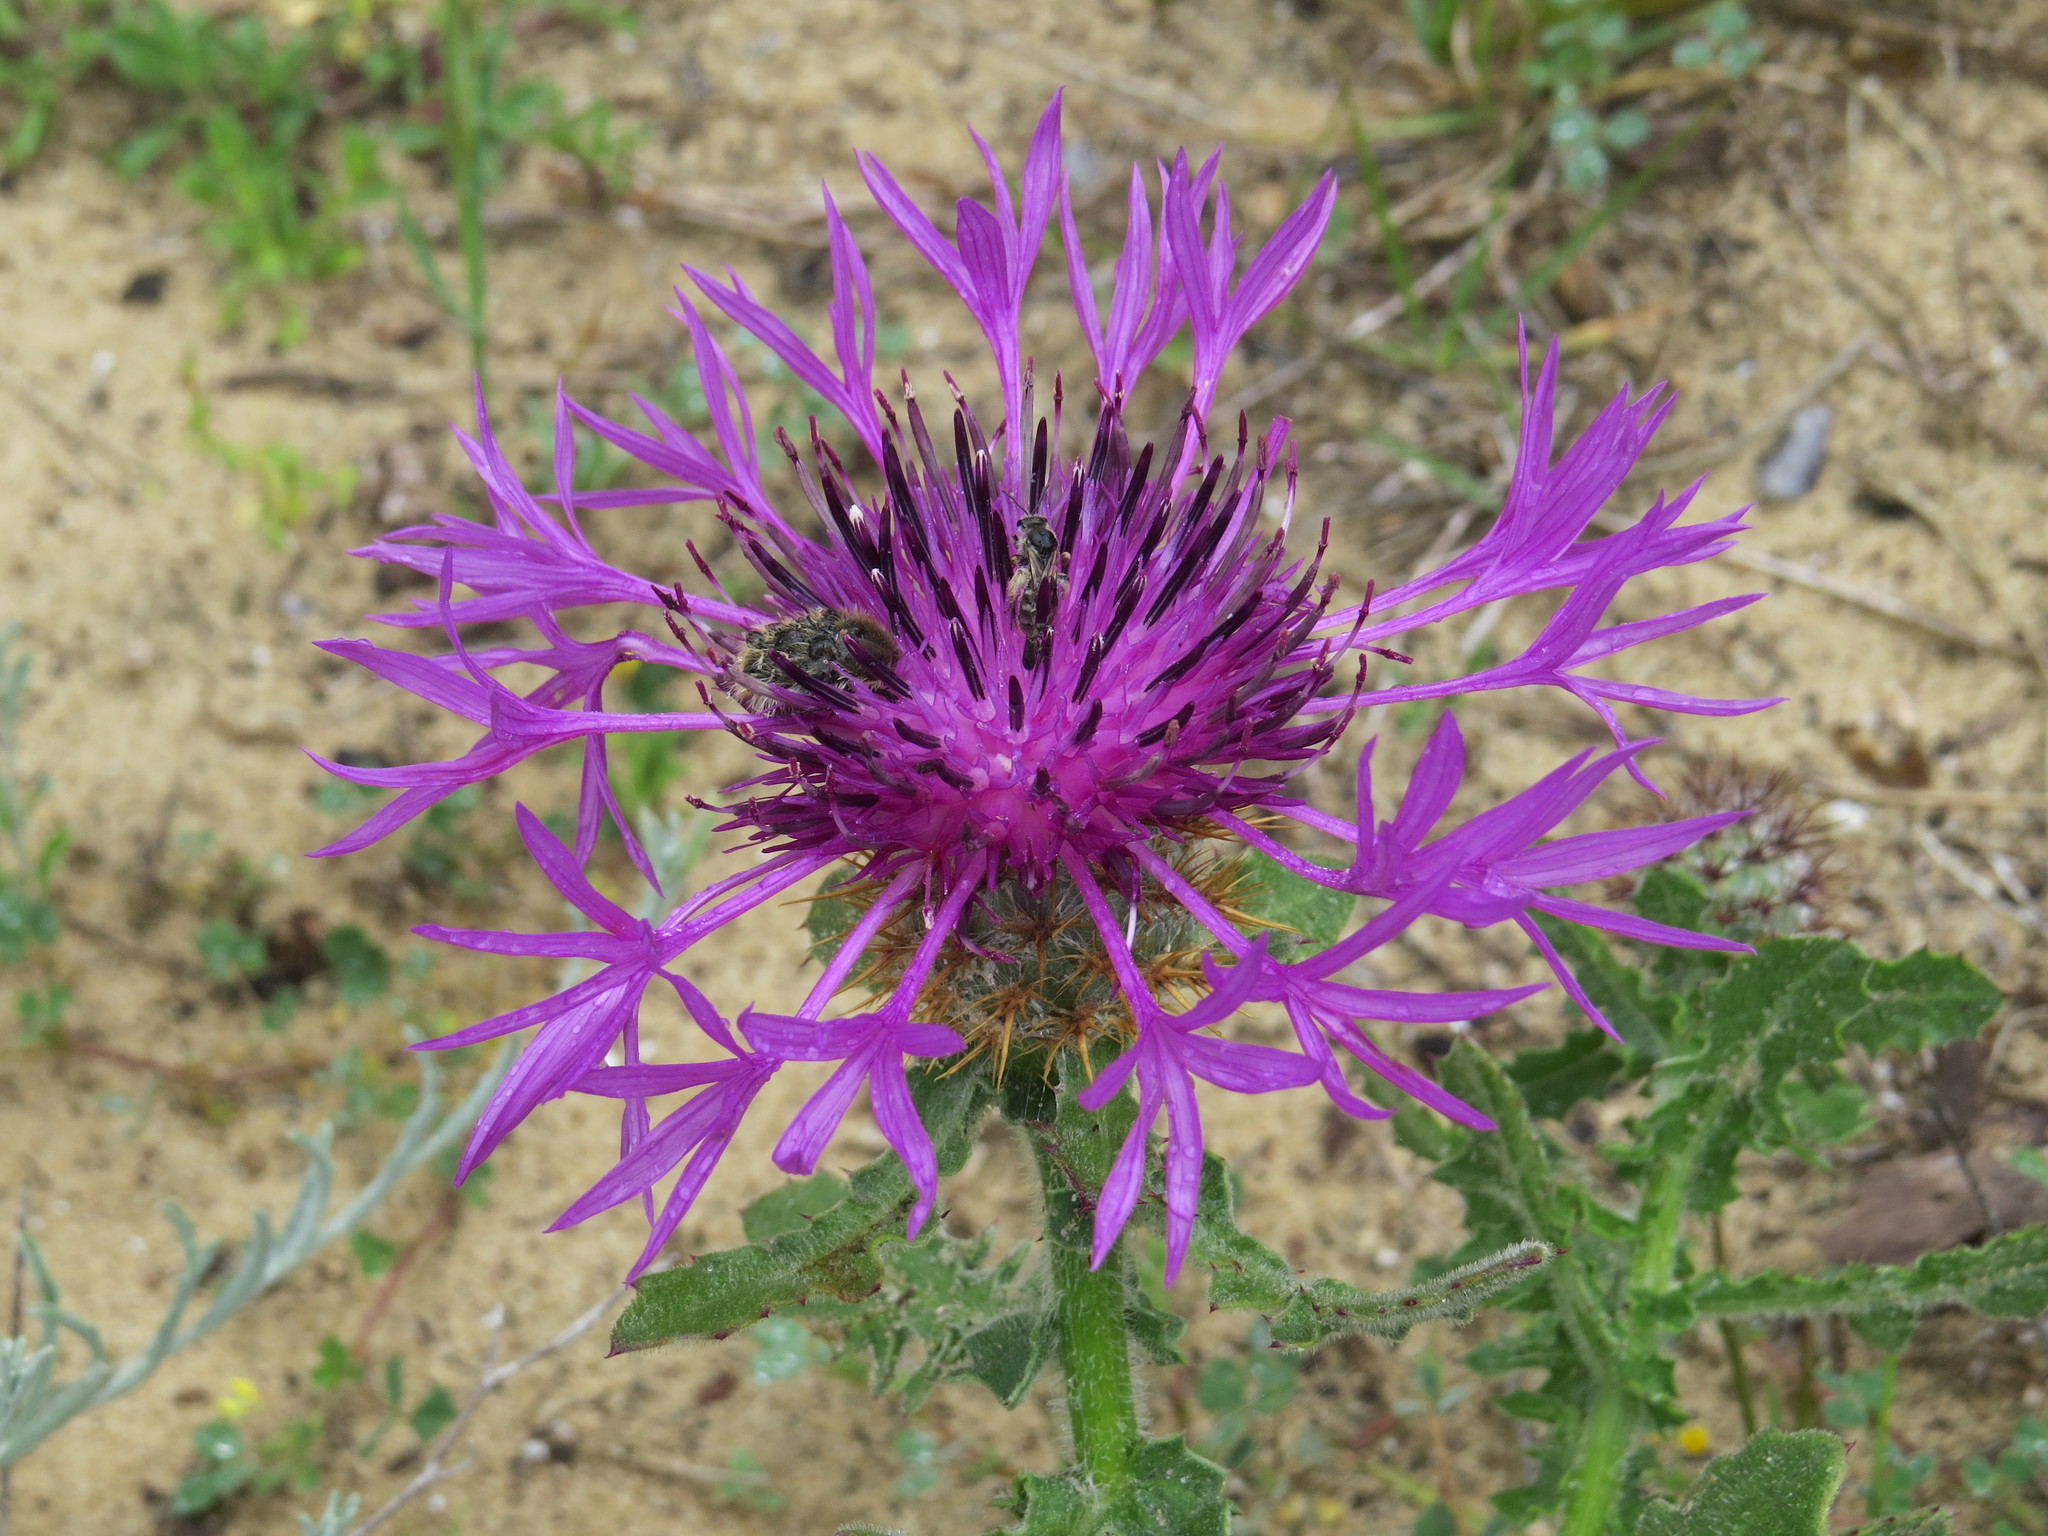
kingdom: Plantae
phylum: Tracheophyta
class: Magnoliopsida
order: Asterales
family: Asteraceae
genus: Centaurea
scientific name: Centaurea polyacantha
